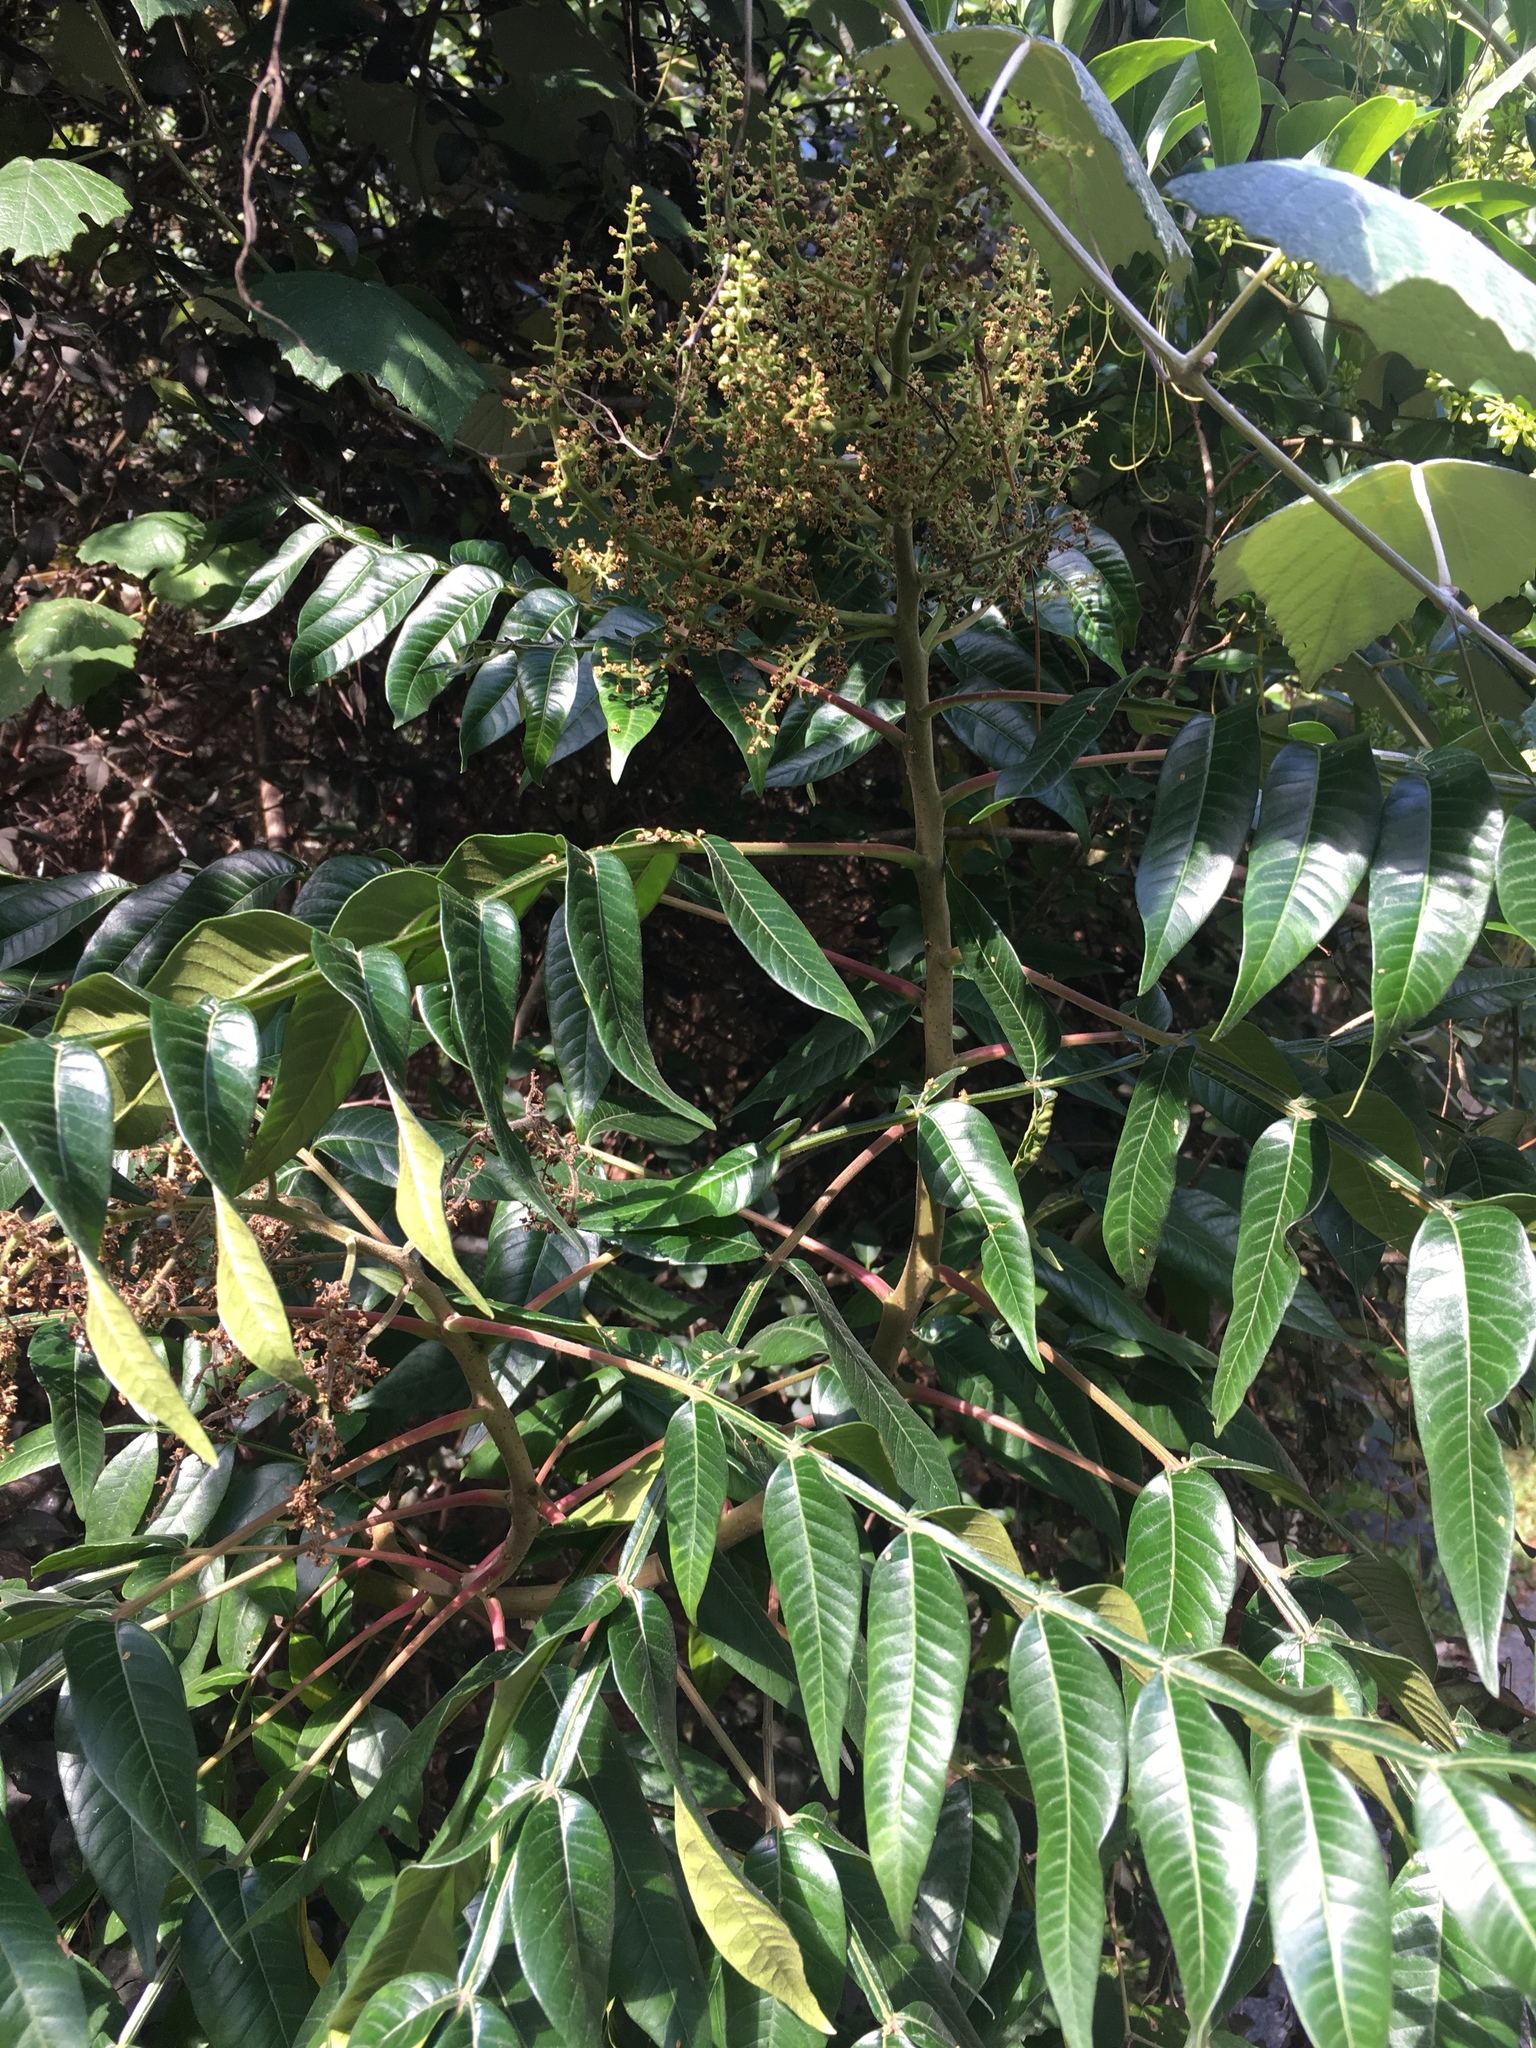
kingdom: Plantae
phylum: Tracheophyta
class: Magnoliopsida
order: Sapindales
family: Anacardiaceae
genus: Rhus
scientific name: Rhus copallina
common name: Shining sumac
